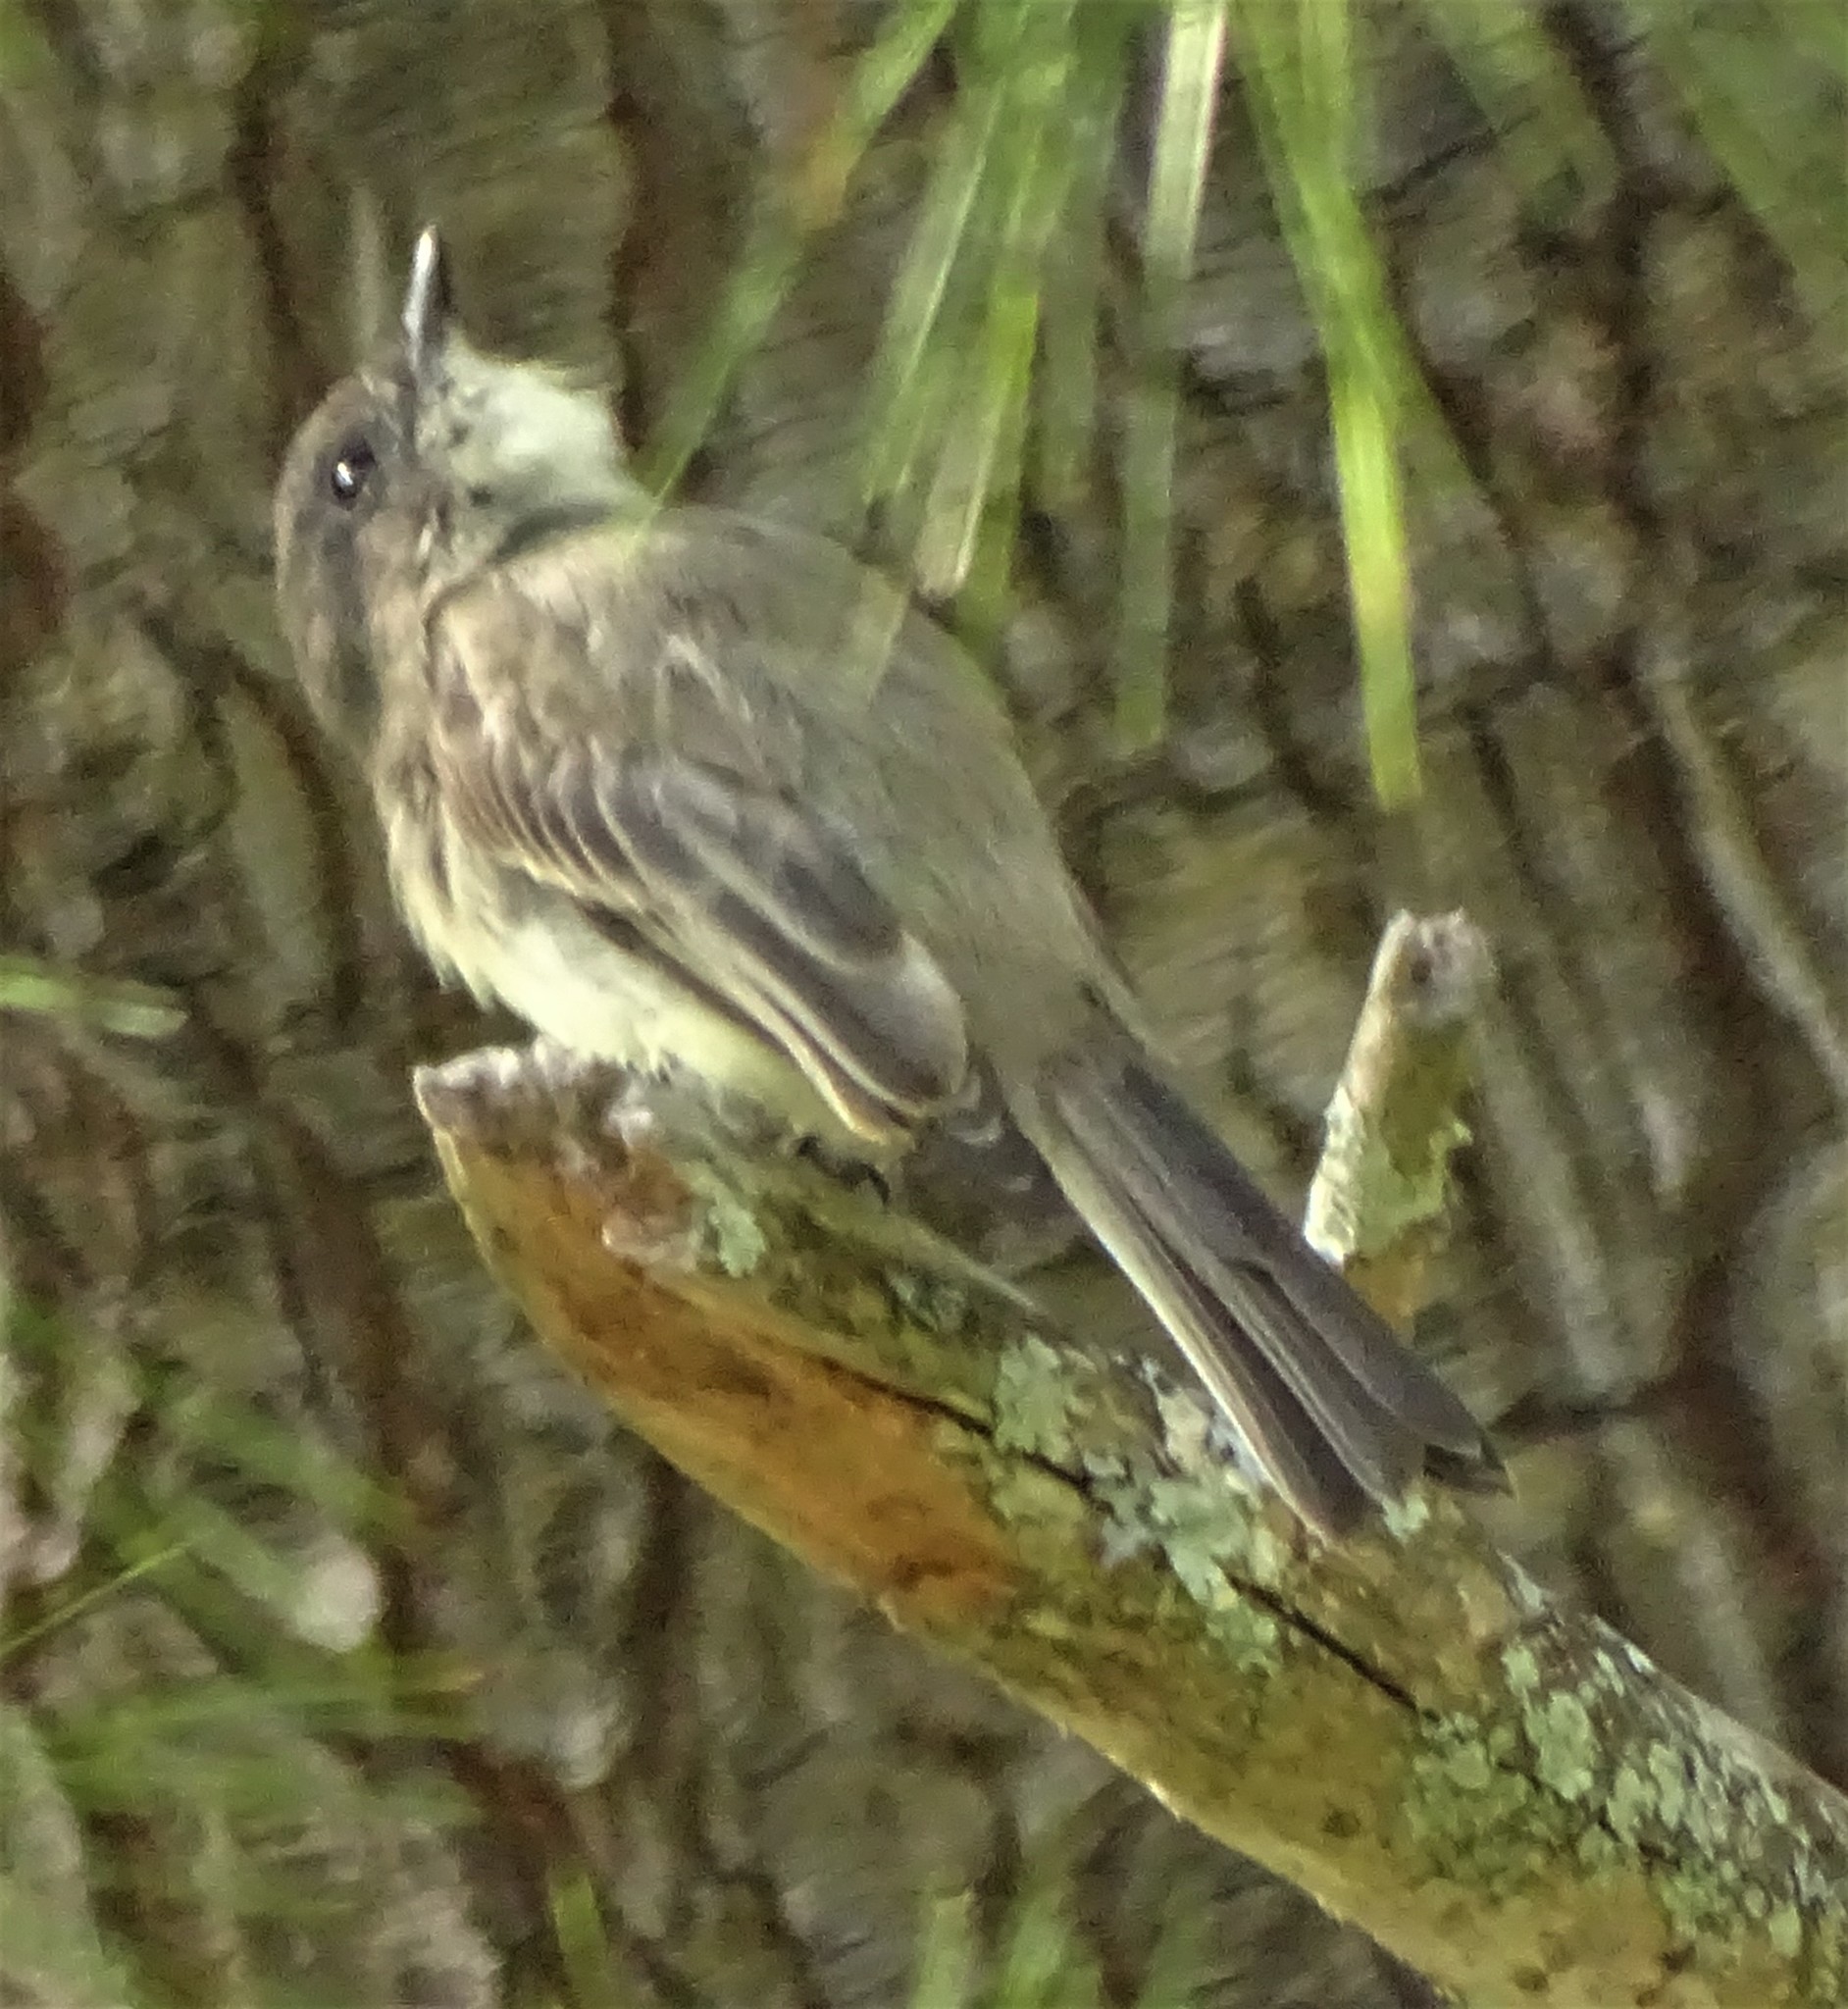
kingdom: Animalia
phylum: Chordata
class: Aves
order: Passeriformes
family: Tyrannidae
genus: Sayornis
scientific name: Sayornis phoebe
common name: Eastern phoebe
